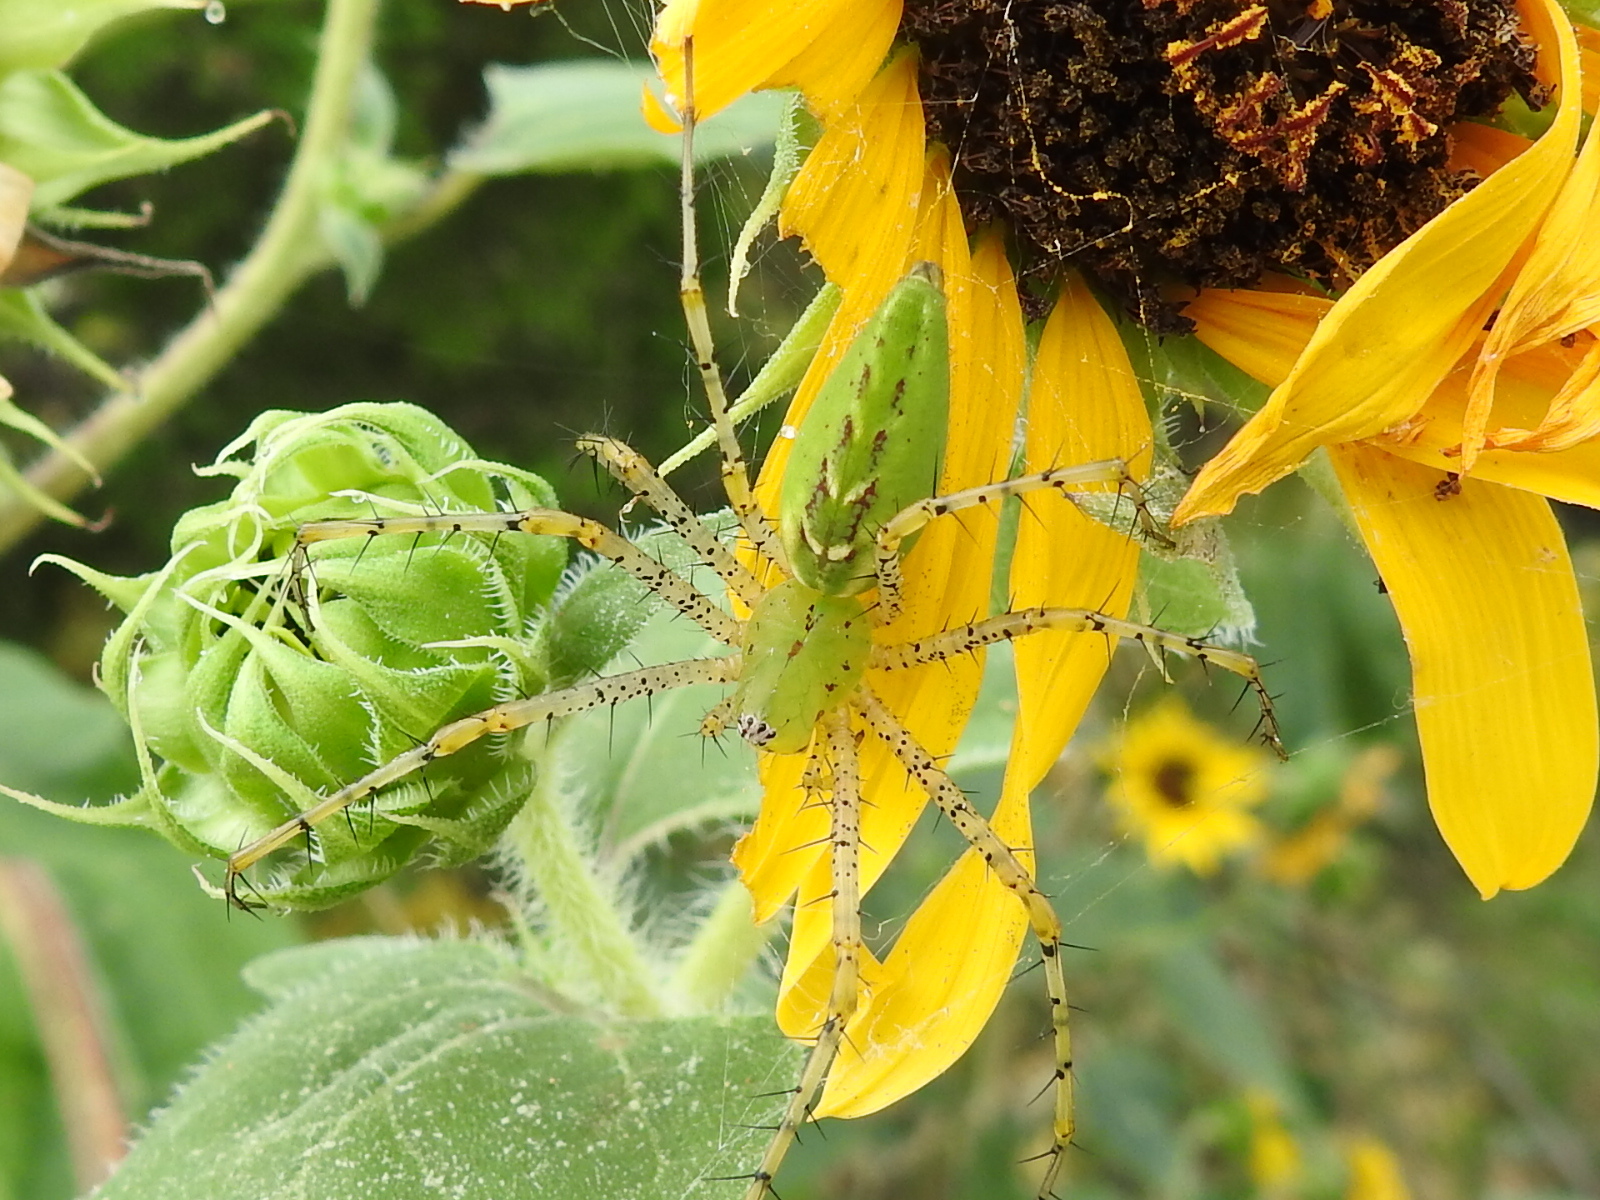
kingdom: Animalia
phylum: Arthropoda
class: Arachnida
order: Araneae
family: Oxyopidae
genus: Peucetia
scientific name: Peucetia viridans
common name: Lynx spiders
